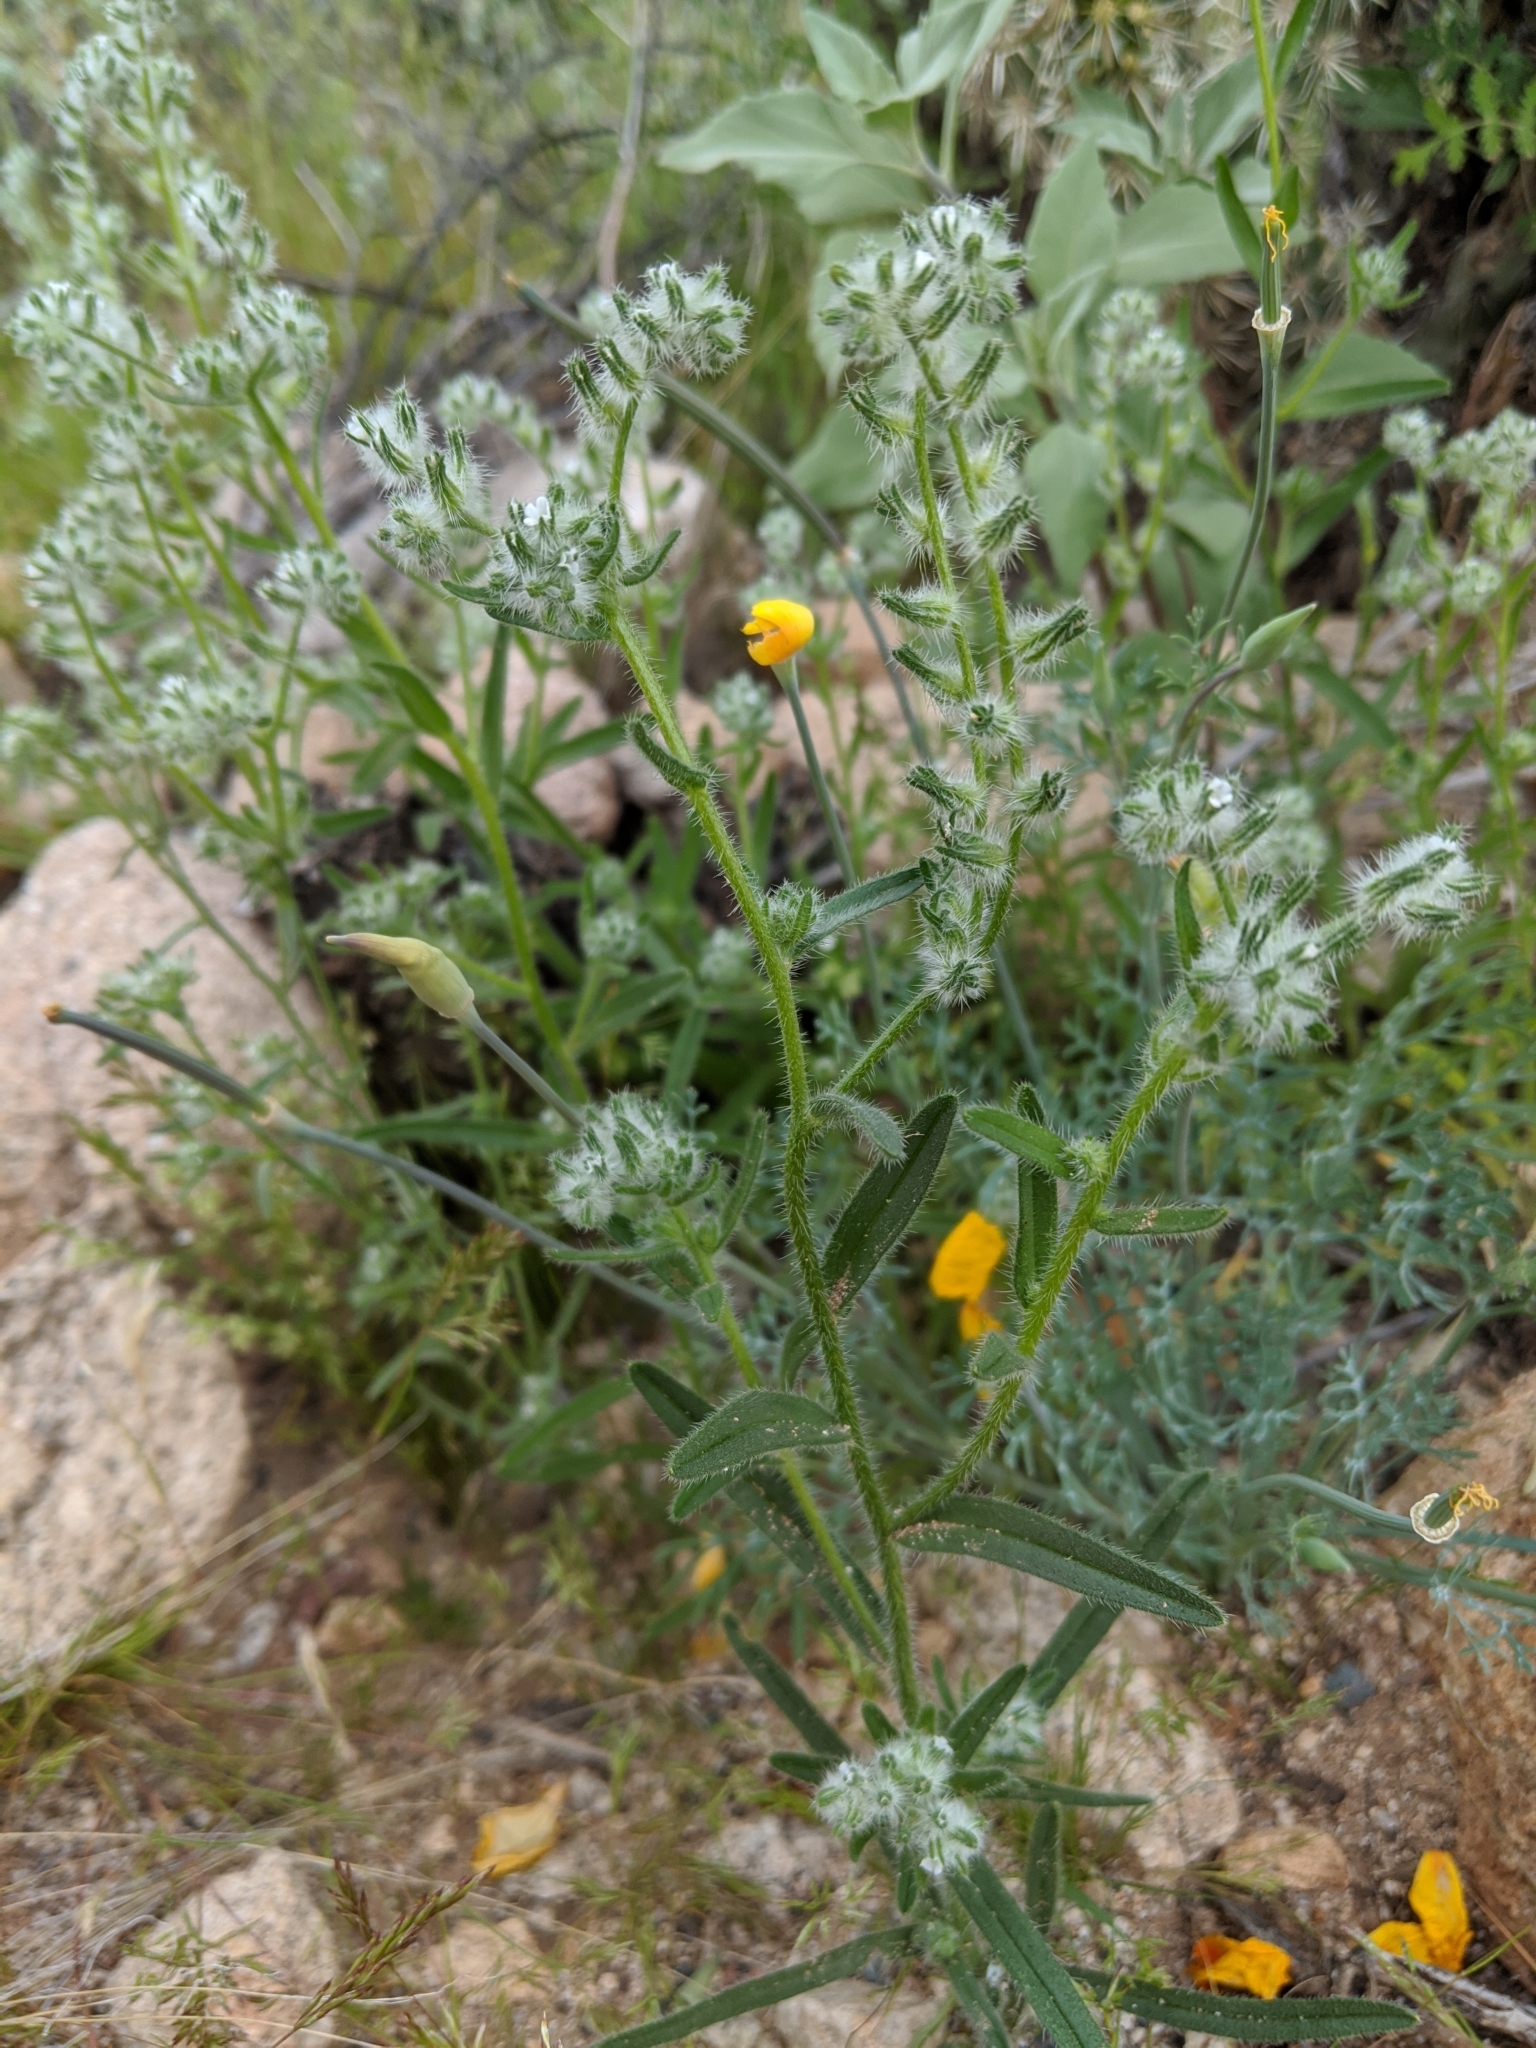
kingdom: Plantae
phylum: Tracheophyta
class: Magnoliopsida
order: Boraginales
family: Boraginaceae
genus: Cryptantha
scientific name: Cryptantha
